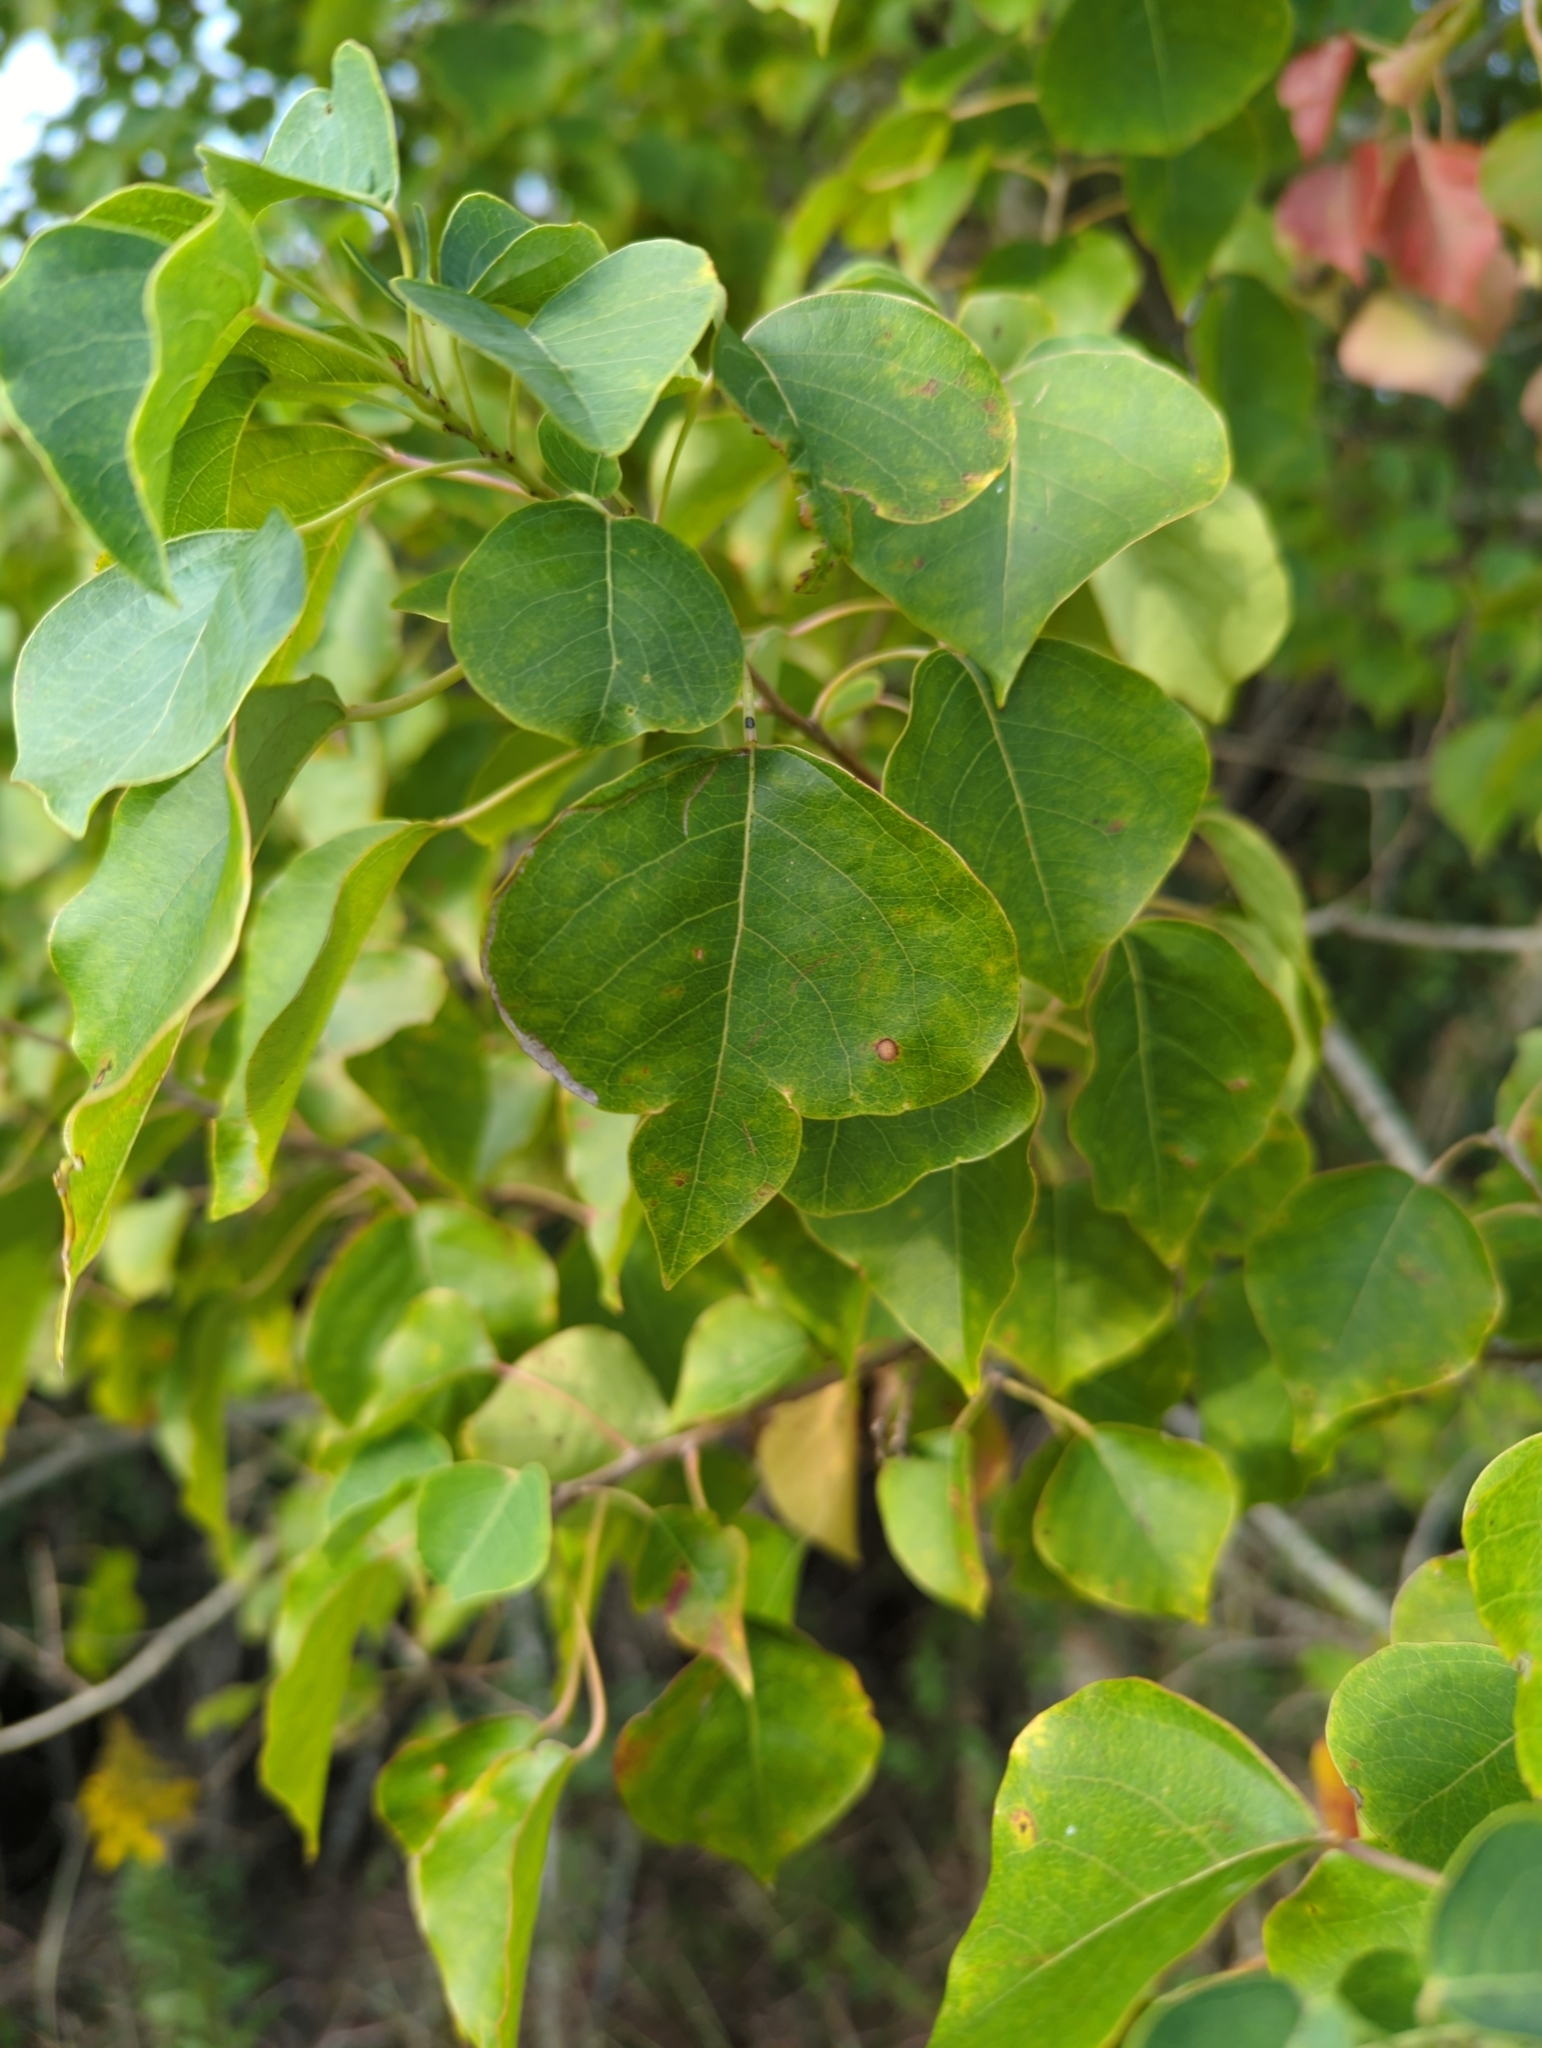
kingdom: Plantae
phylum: Tracheophyta
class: Magnoliopsida
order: Malpighiales
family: Euphorbiaceae
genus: Triadica
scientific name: Triadica sebifera
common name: Chinese tallow
